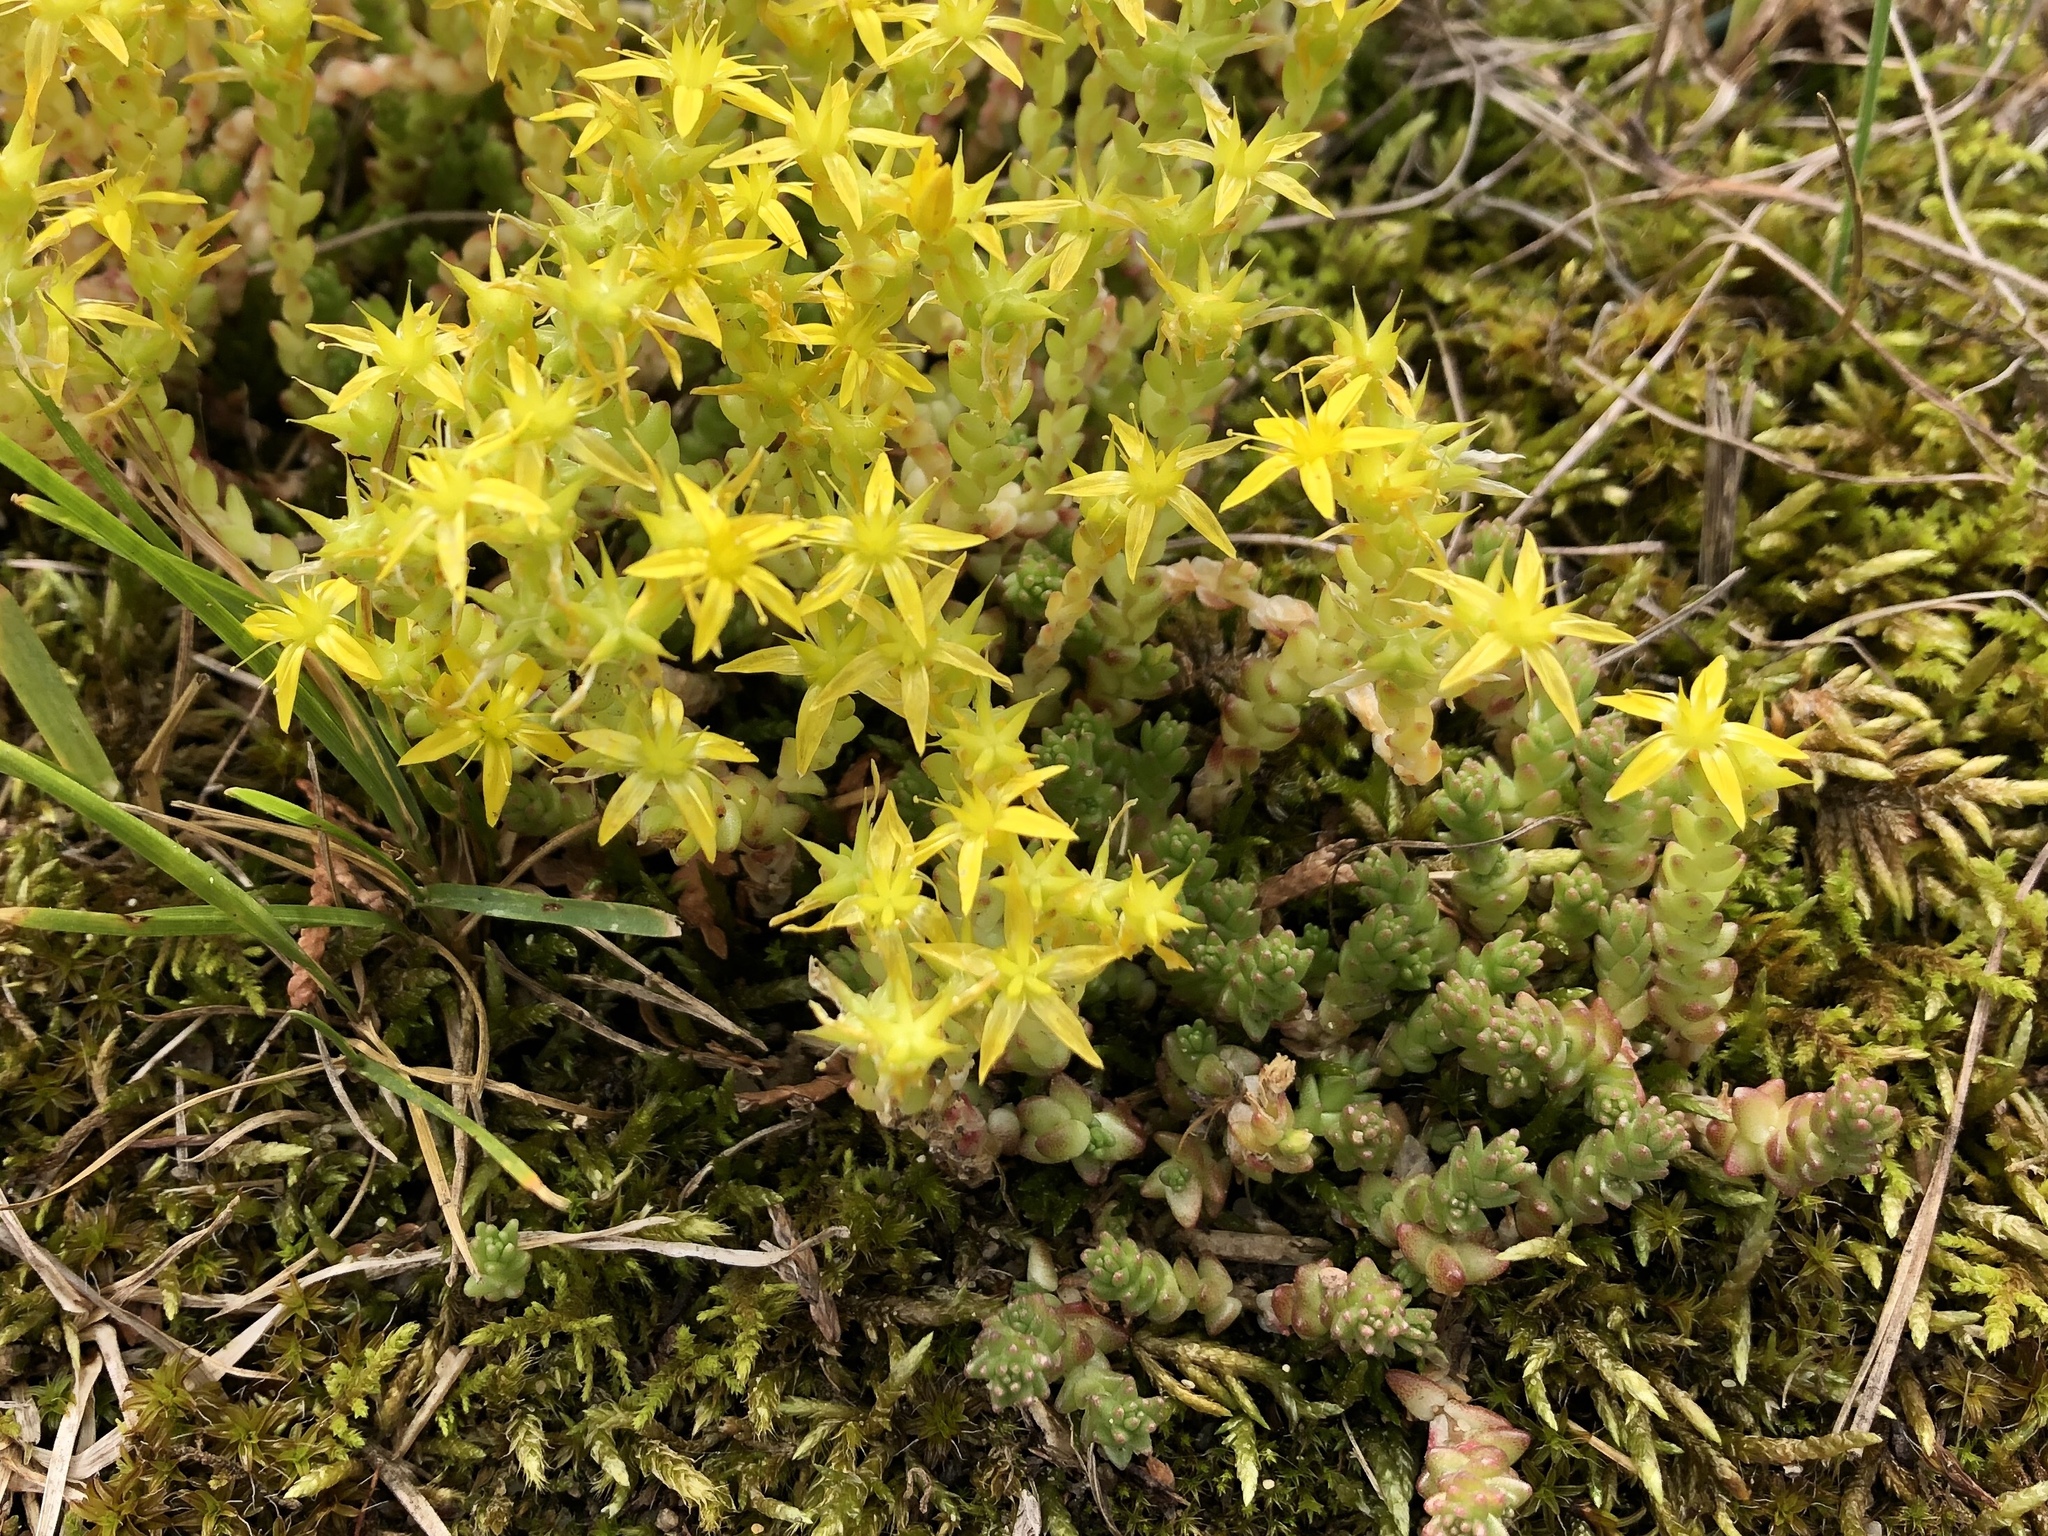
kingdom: Plantae
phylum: Tracheophyta
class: Magnoliopsida
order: Saxifragales
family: Crassulaceae
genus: Sedum
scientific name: Sedum acre
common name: Biting stonecrop
